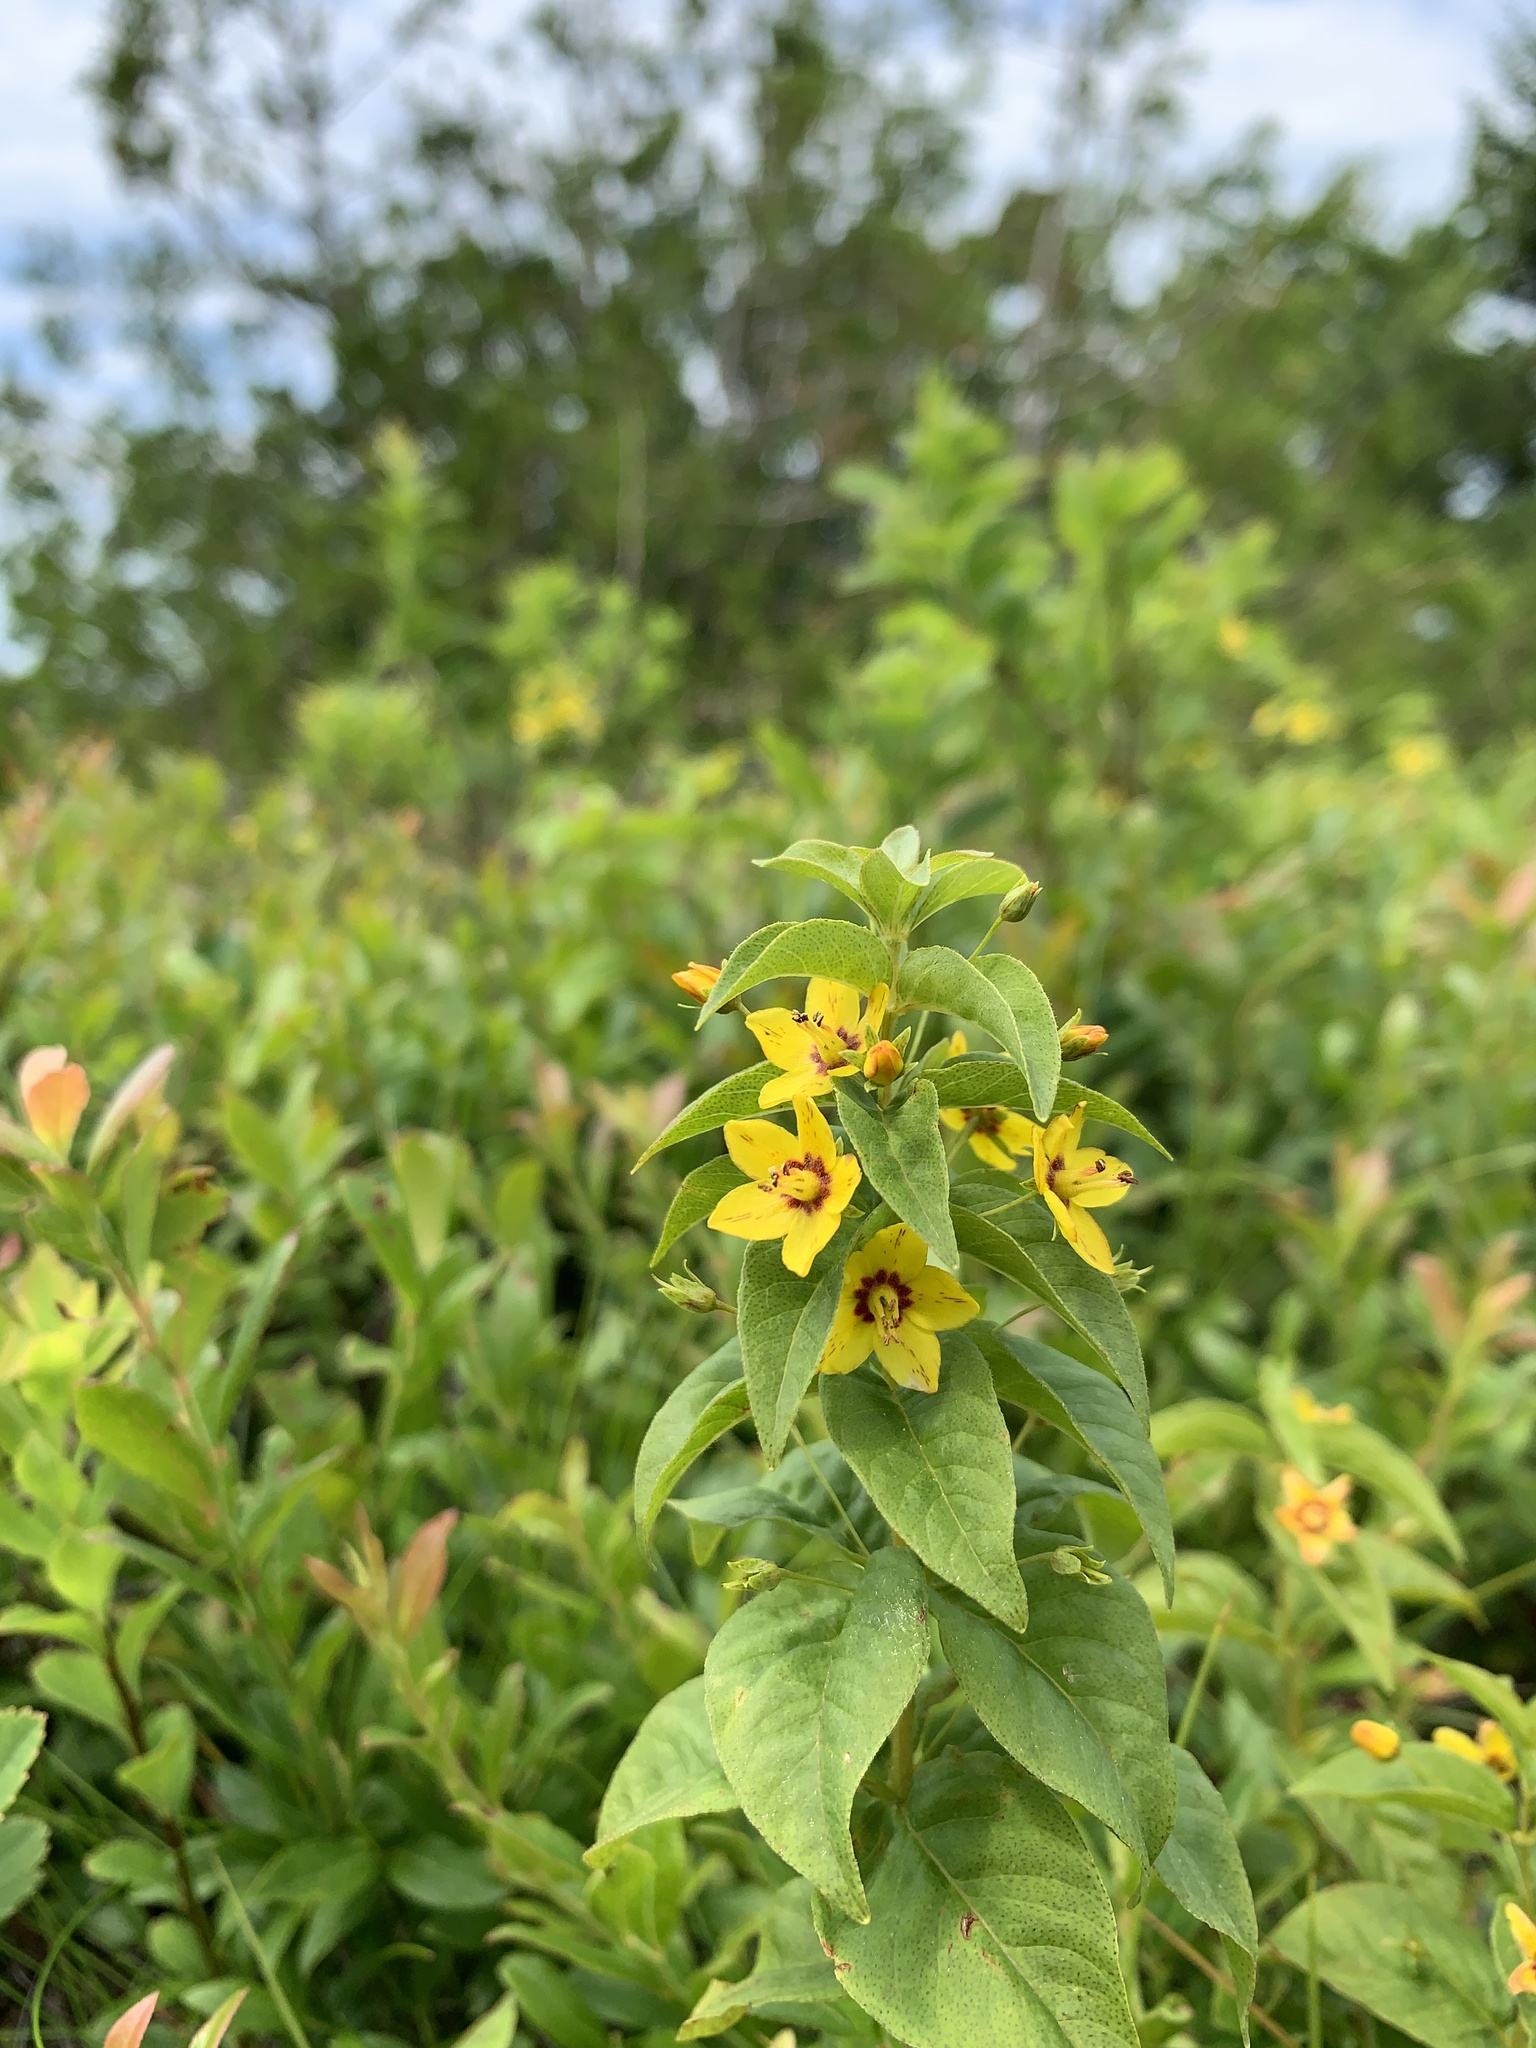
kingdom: Plantae
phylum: Tracheophyta
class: Magnoliopsida
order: Ericales
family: Primulaceae
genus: Lysimachia
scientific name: Lysimachia quadrifolia
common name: Whorled loosestrife
